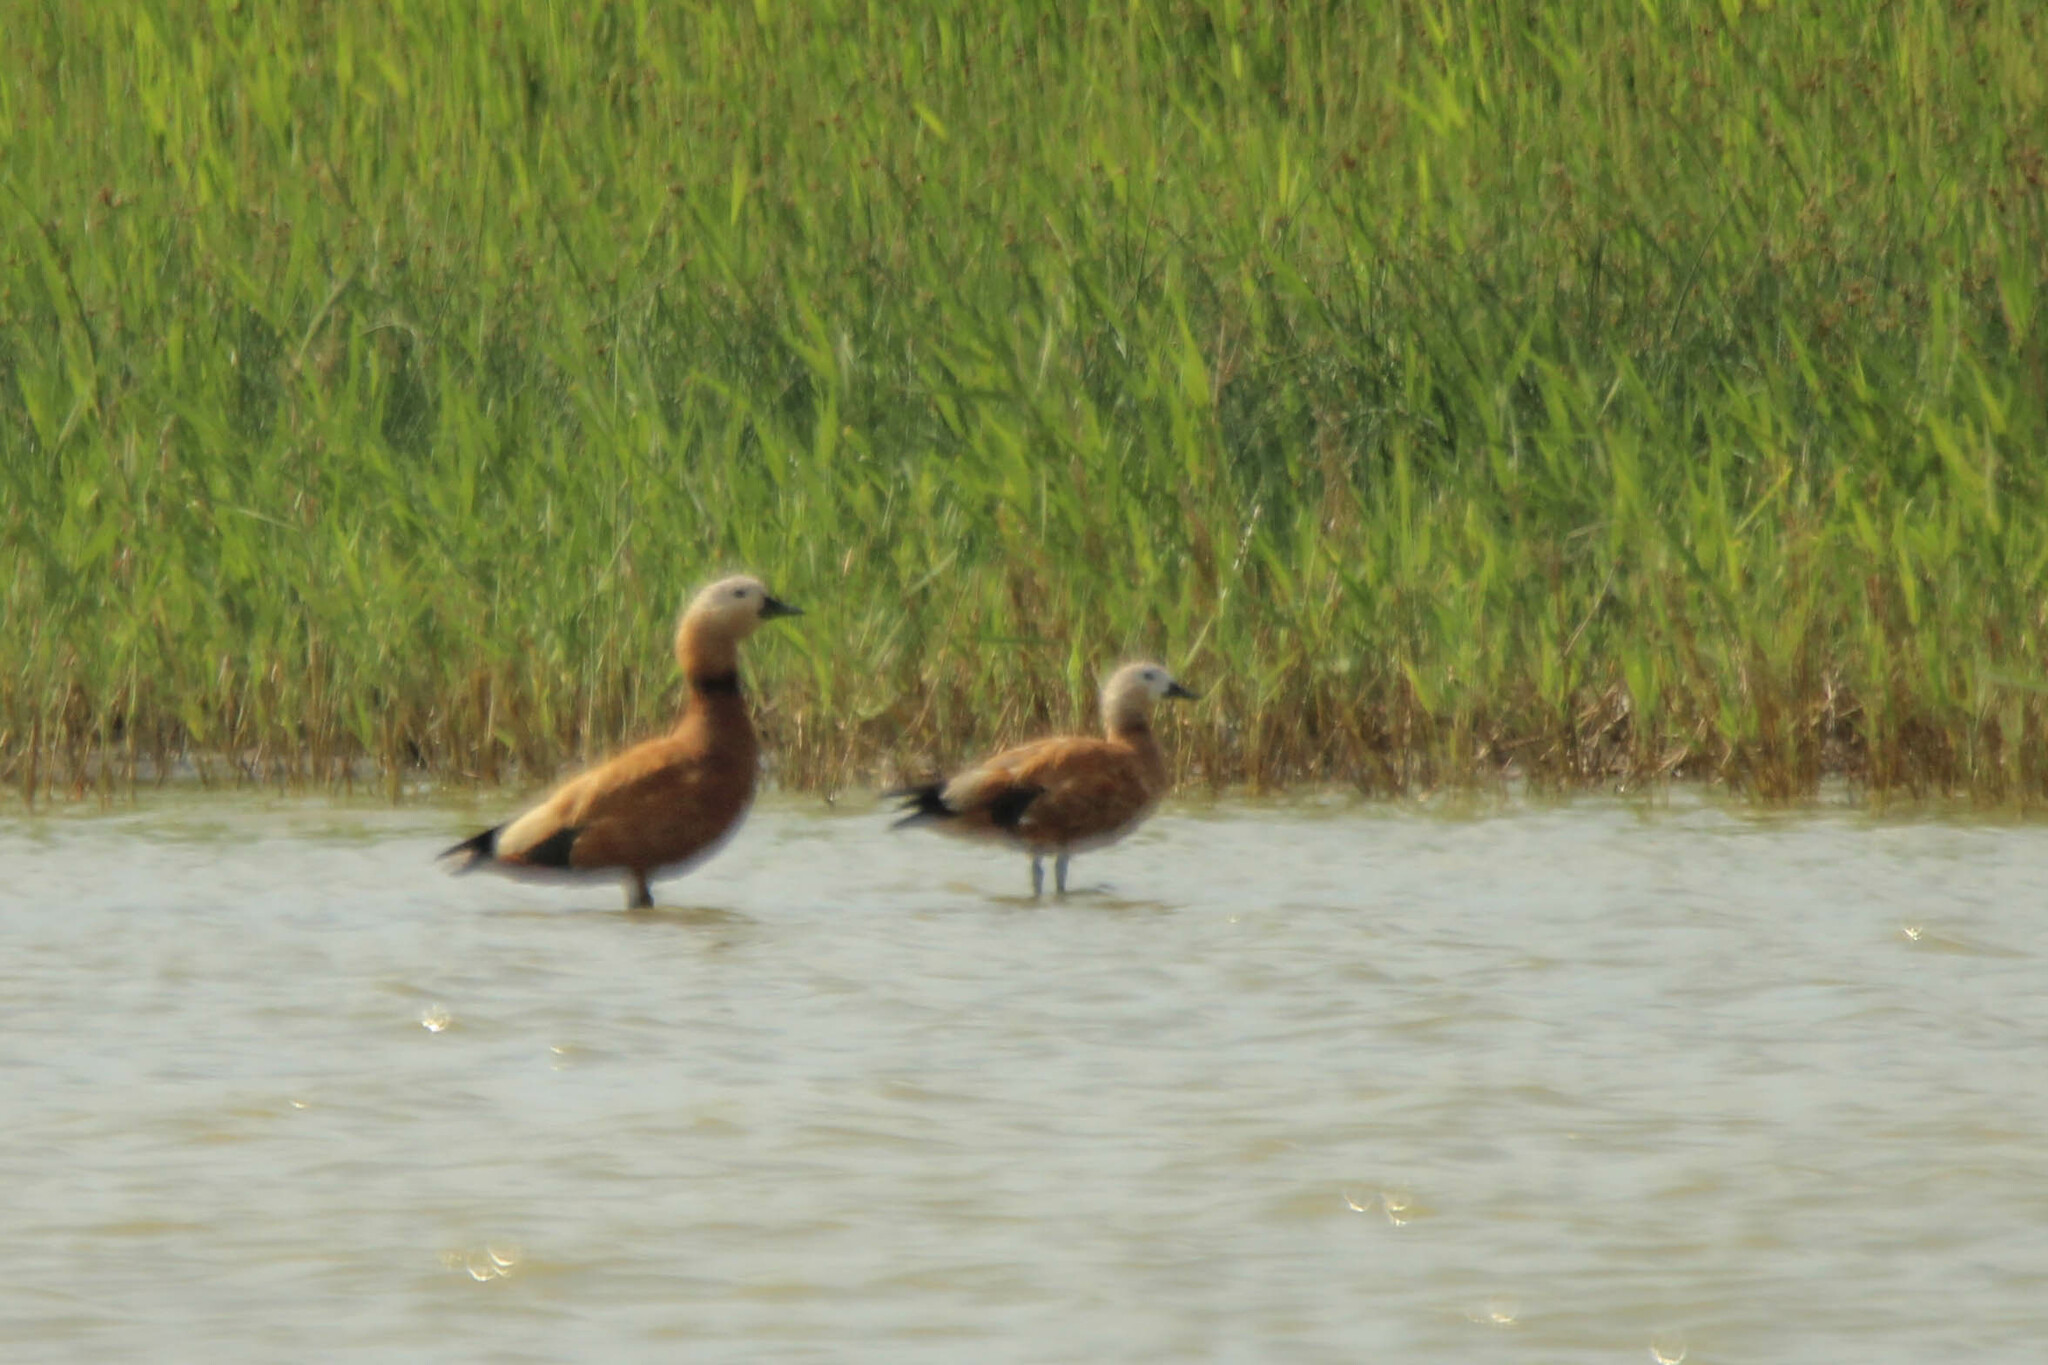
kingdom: Animalia
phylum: Chordata
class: Aves
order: Anseriformes
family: Anatidae
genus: Tadorna
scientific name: Tadorna ferruginea
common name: Ruddy shelduck
